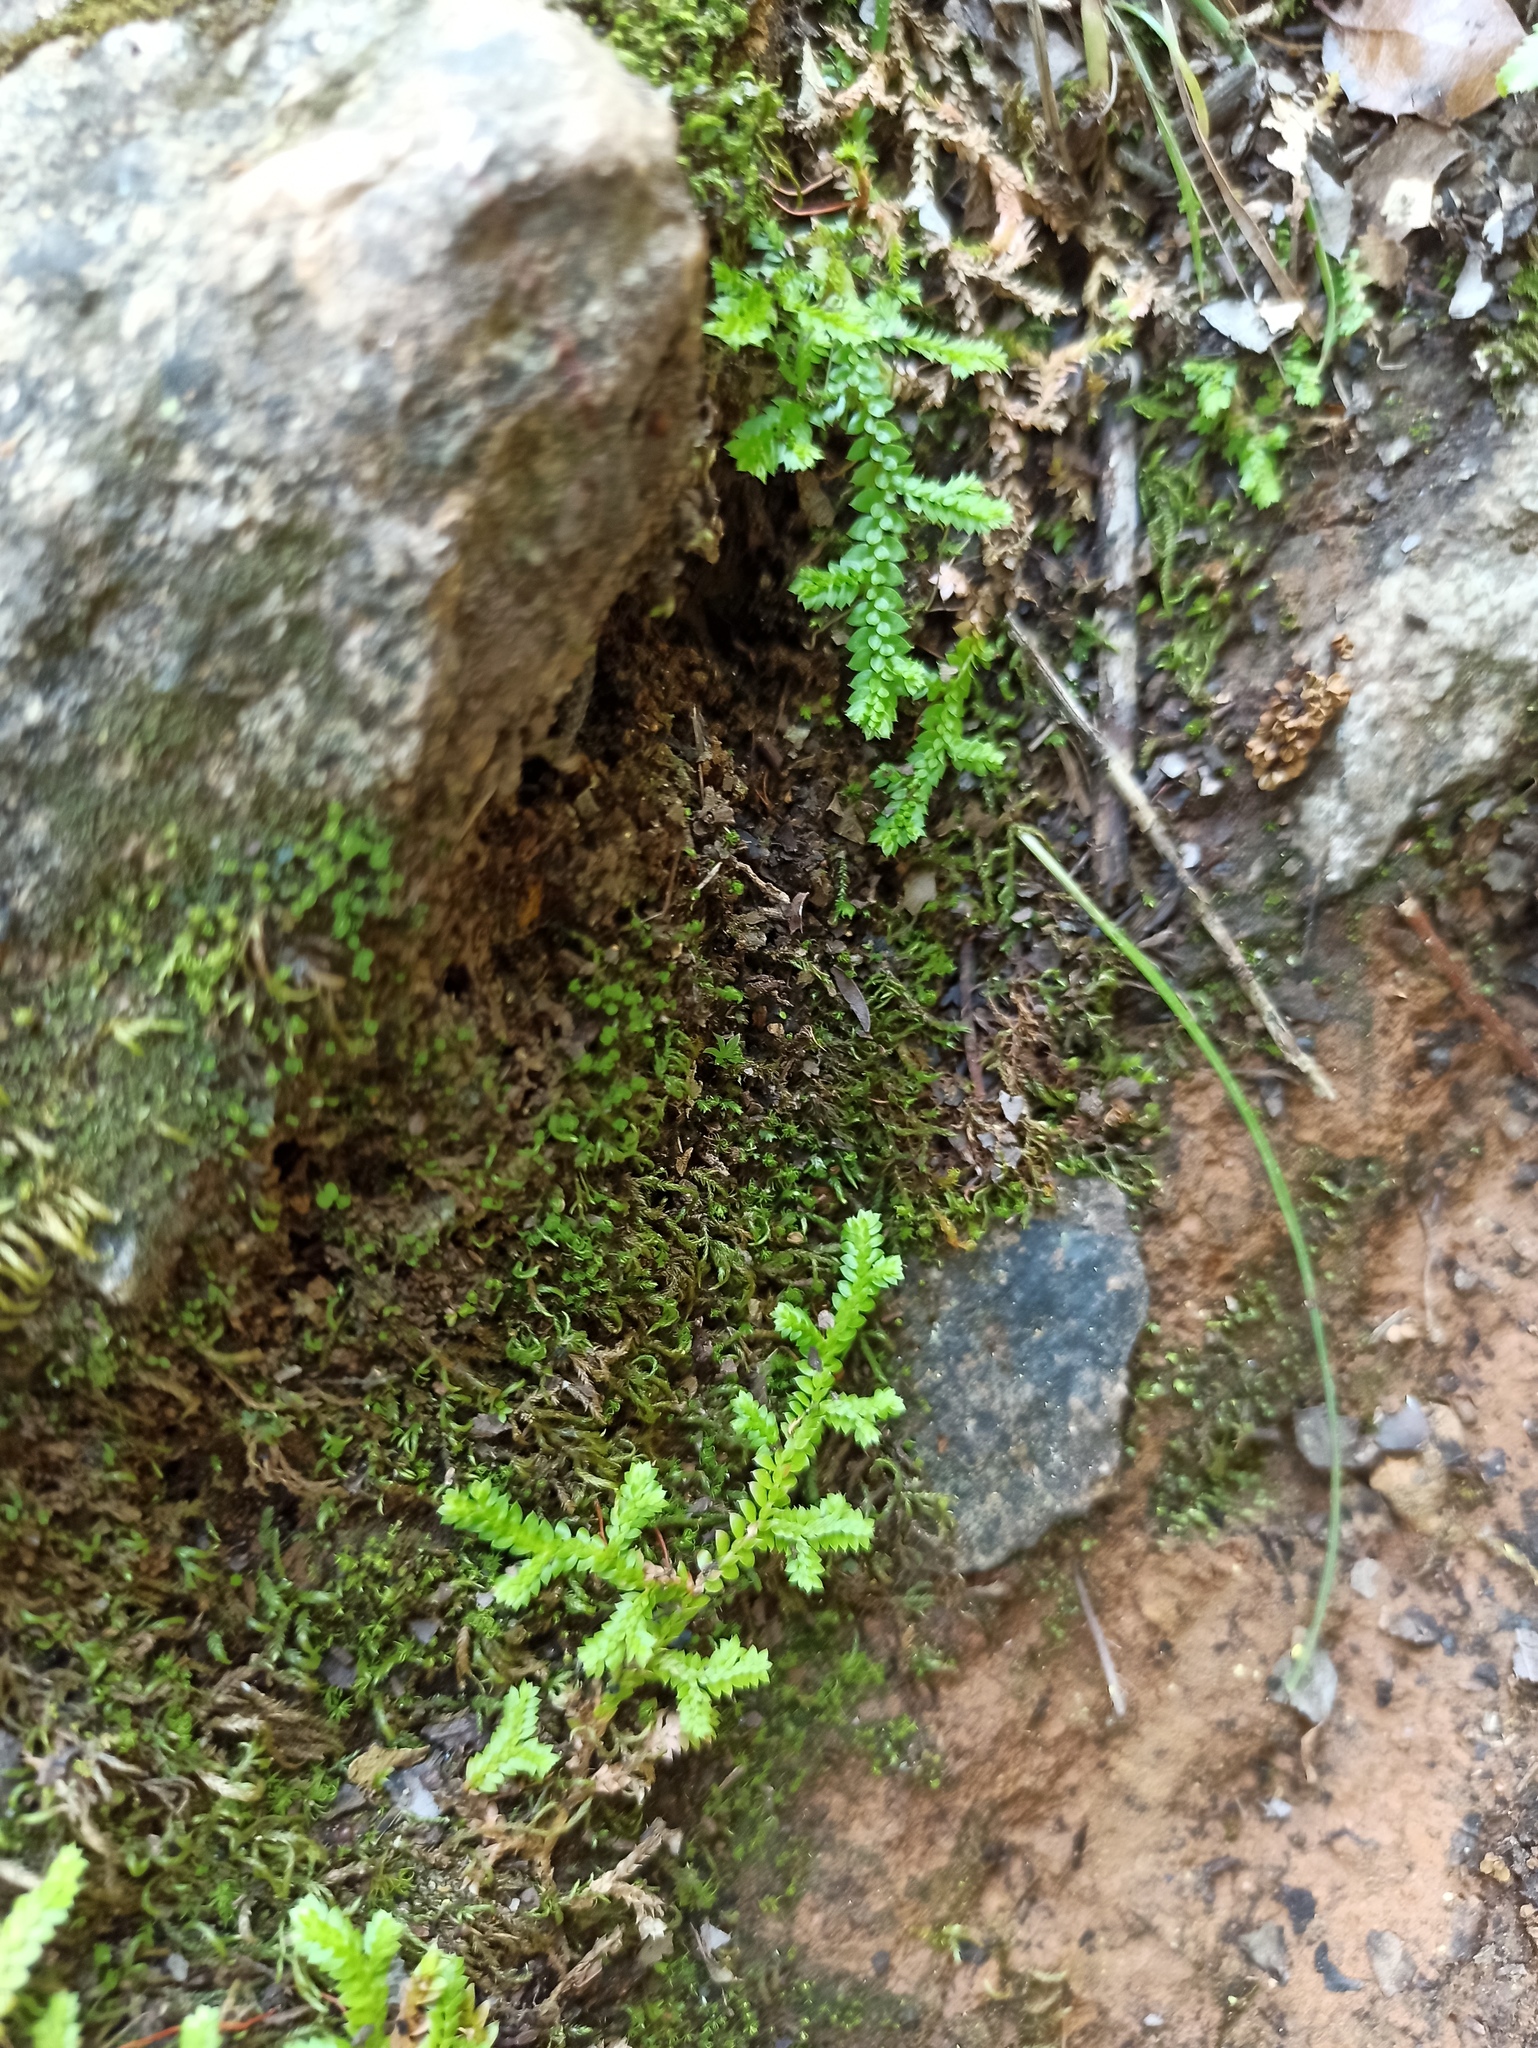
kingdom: Plantae
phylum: Tracheophyta
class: Lycopodiopsida
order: Selaginellales
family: Selaginellaceae
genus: Selaginella
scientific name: Selaginella denticulata
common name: Toothed-leaved clubmoss
